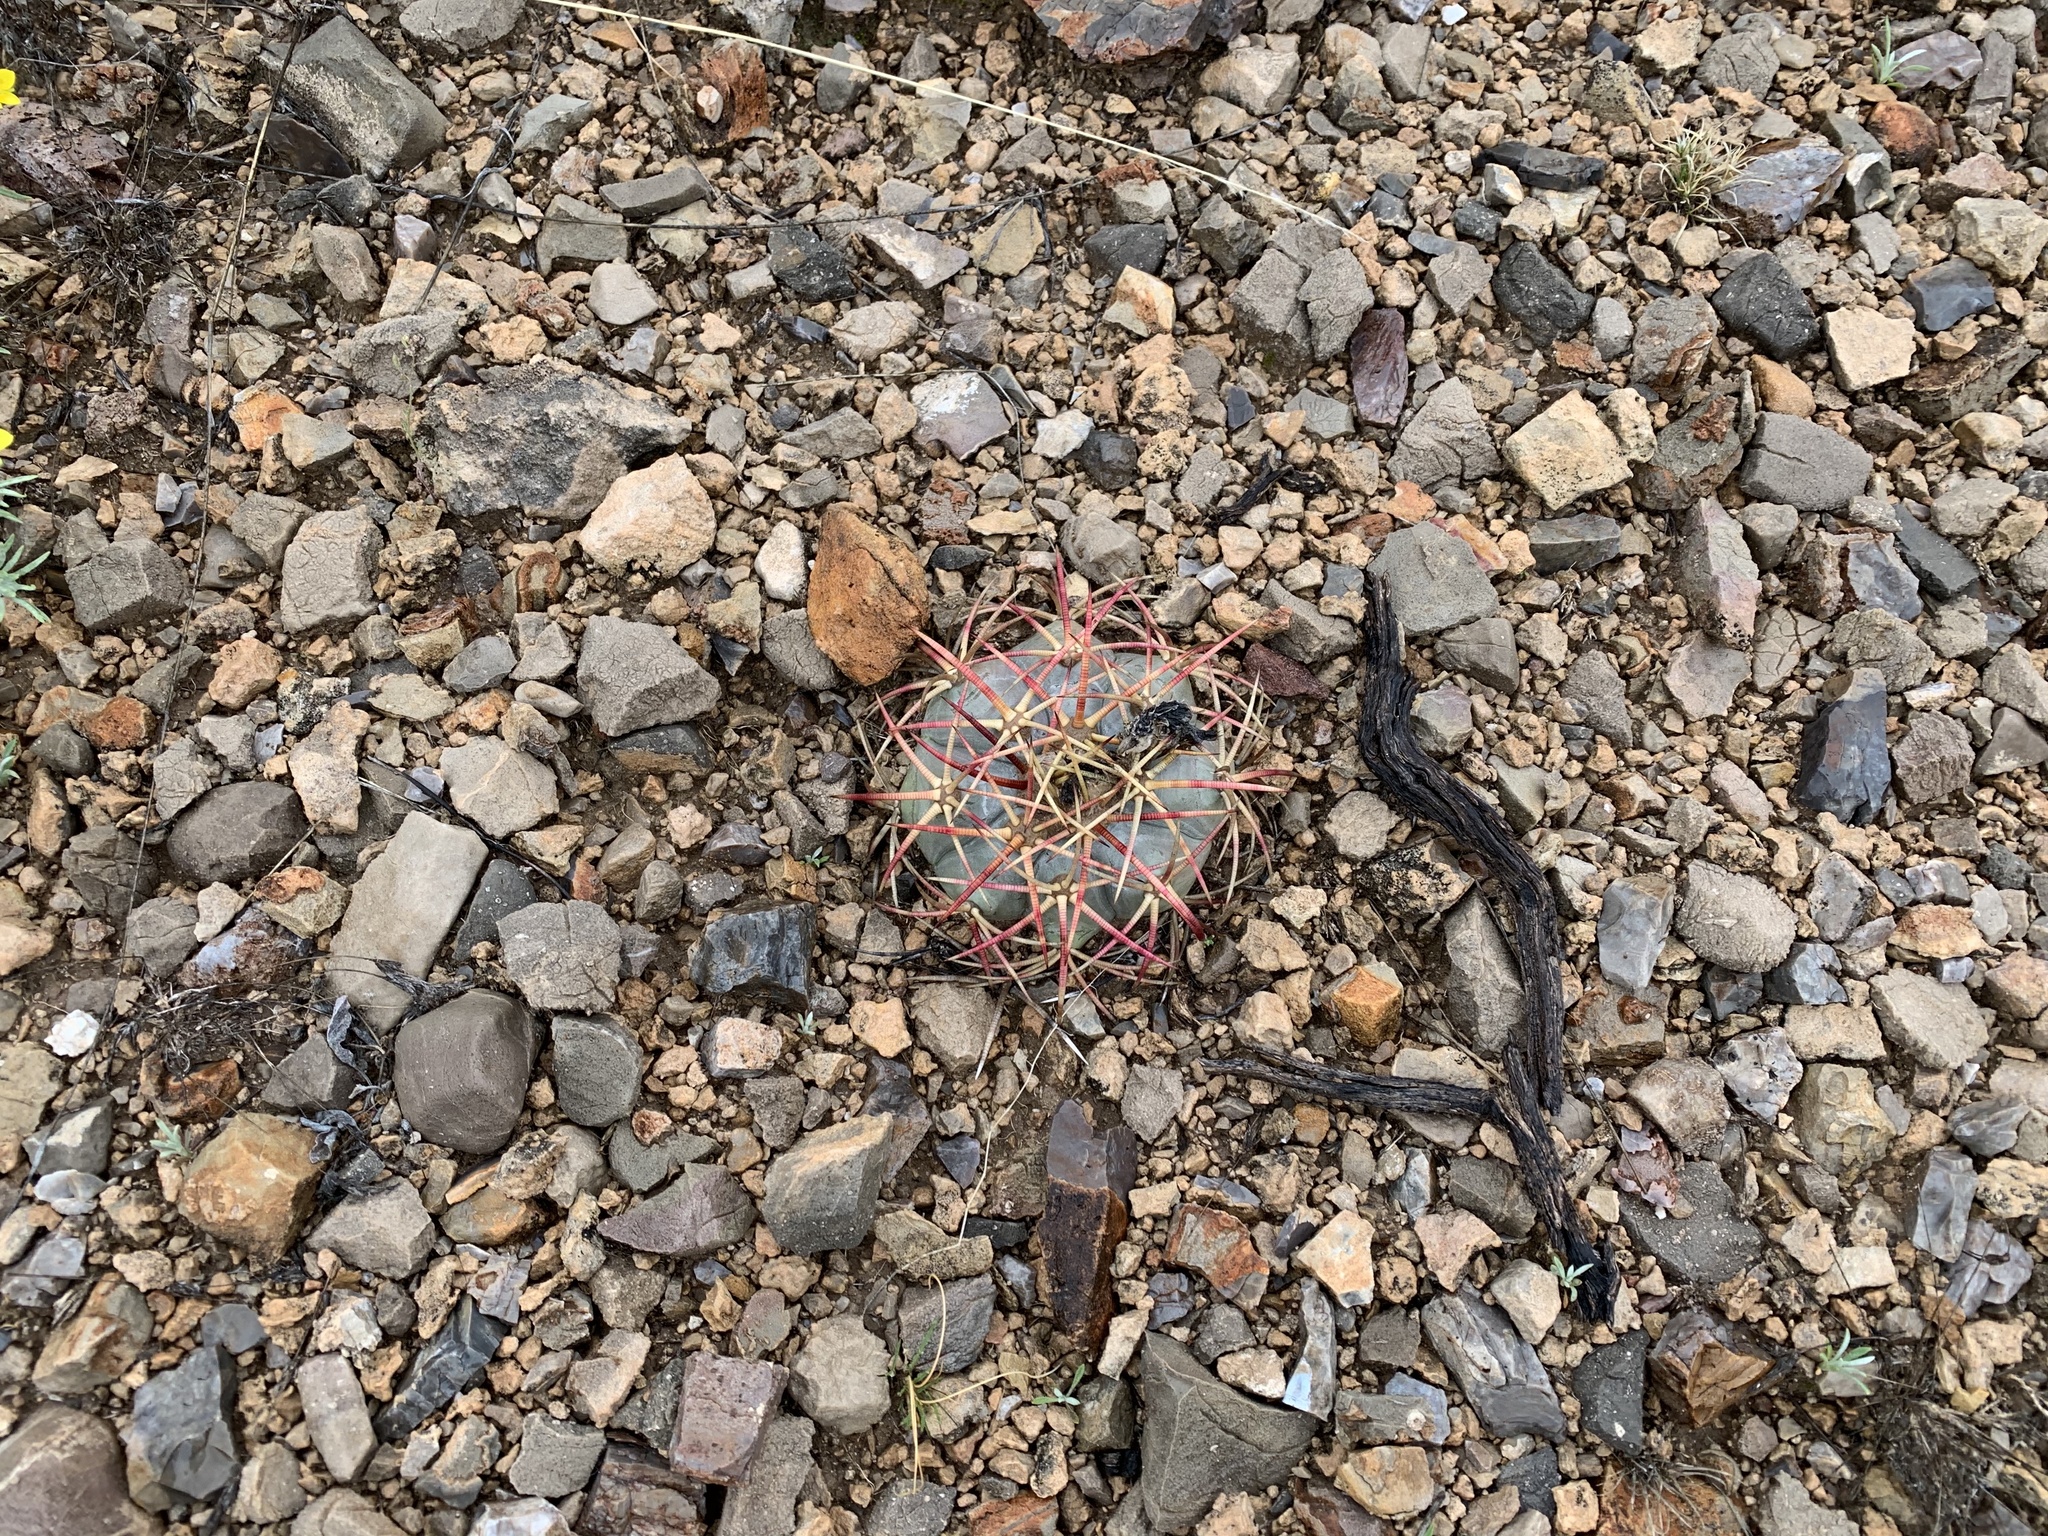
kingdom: Plantae
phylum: Tracheophyta
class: Magnoliopsida
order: Caryophyllales
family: Cactaceae
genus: Echinocactus
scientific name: Echinocactus horizonthalonius
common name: Devilshead
